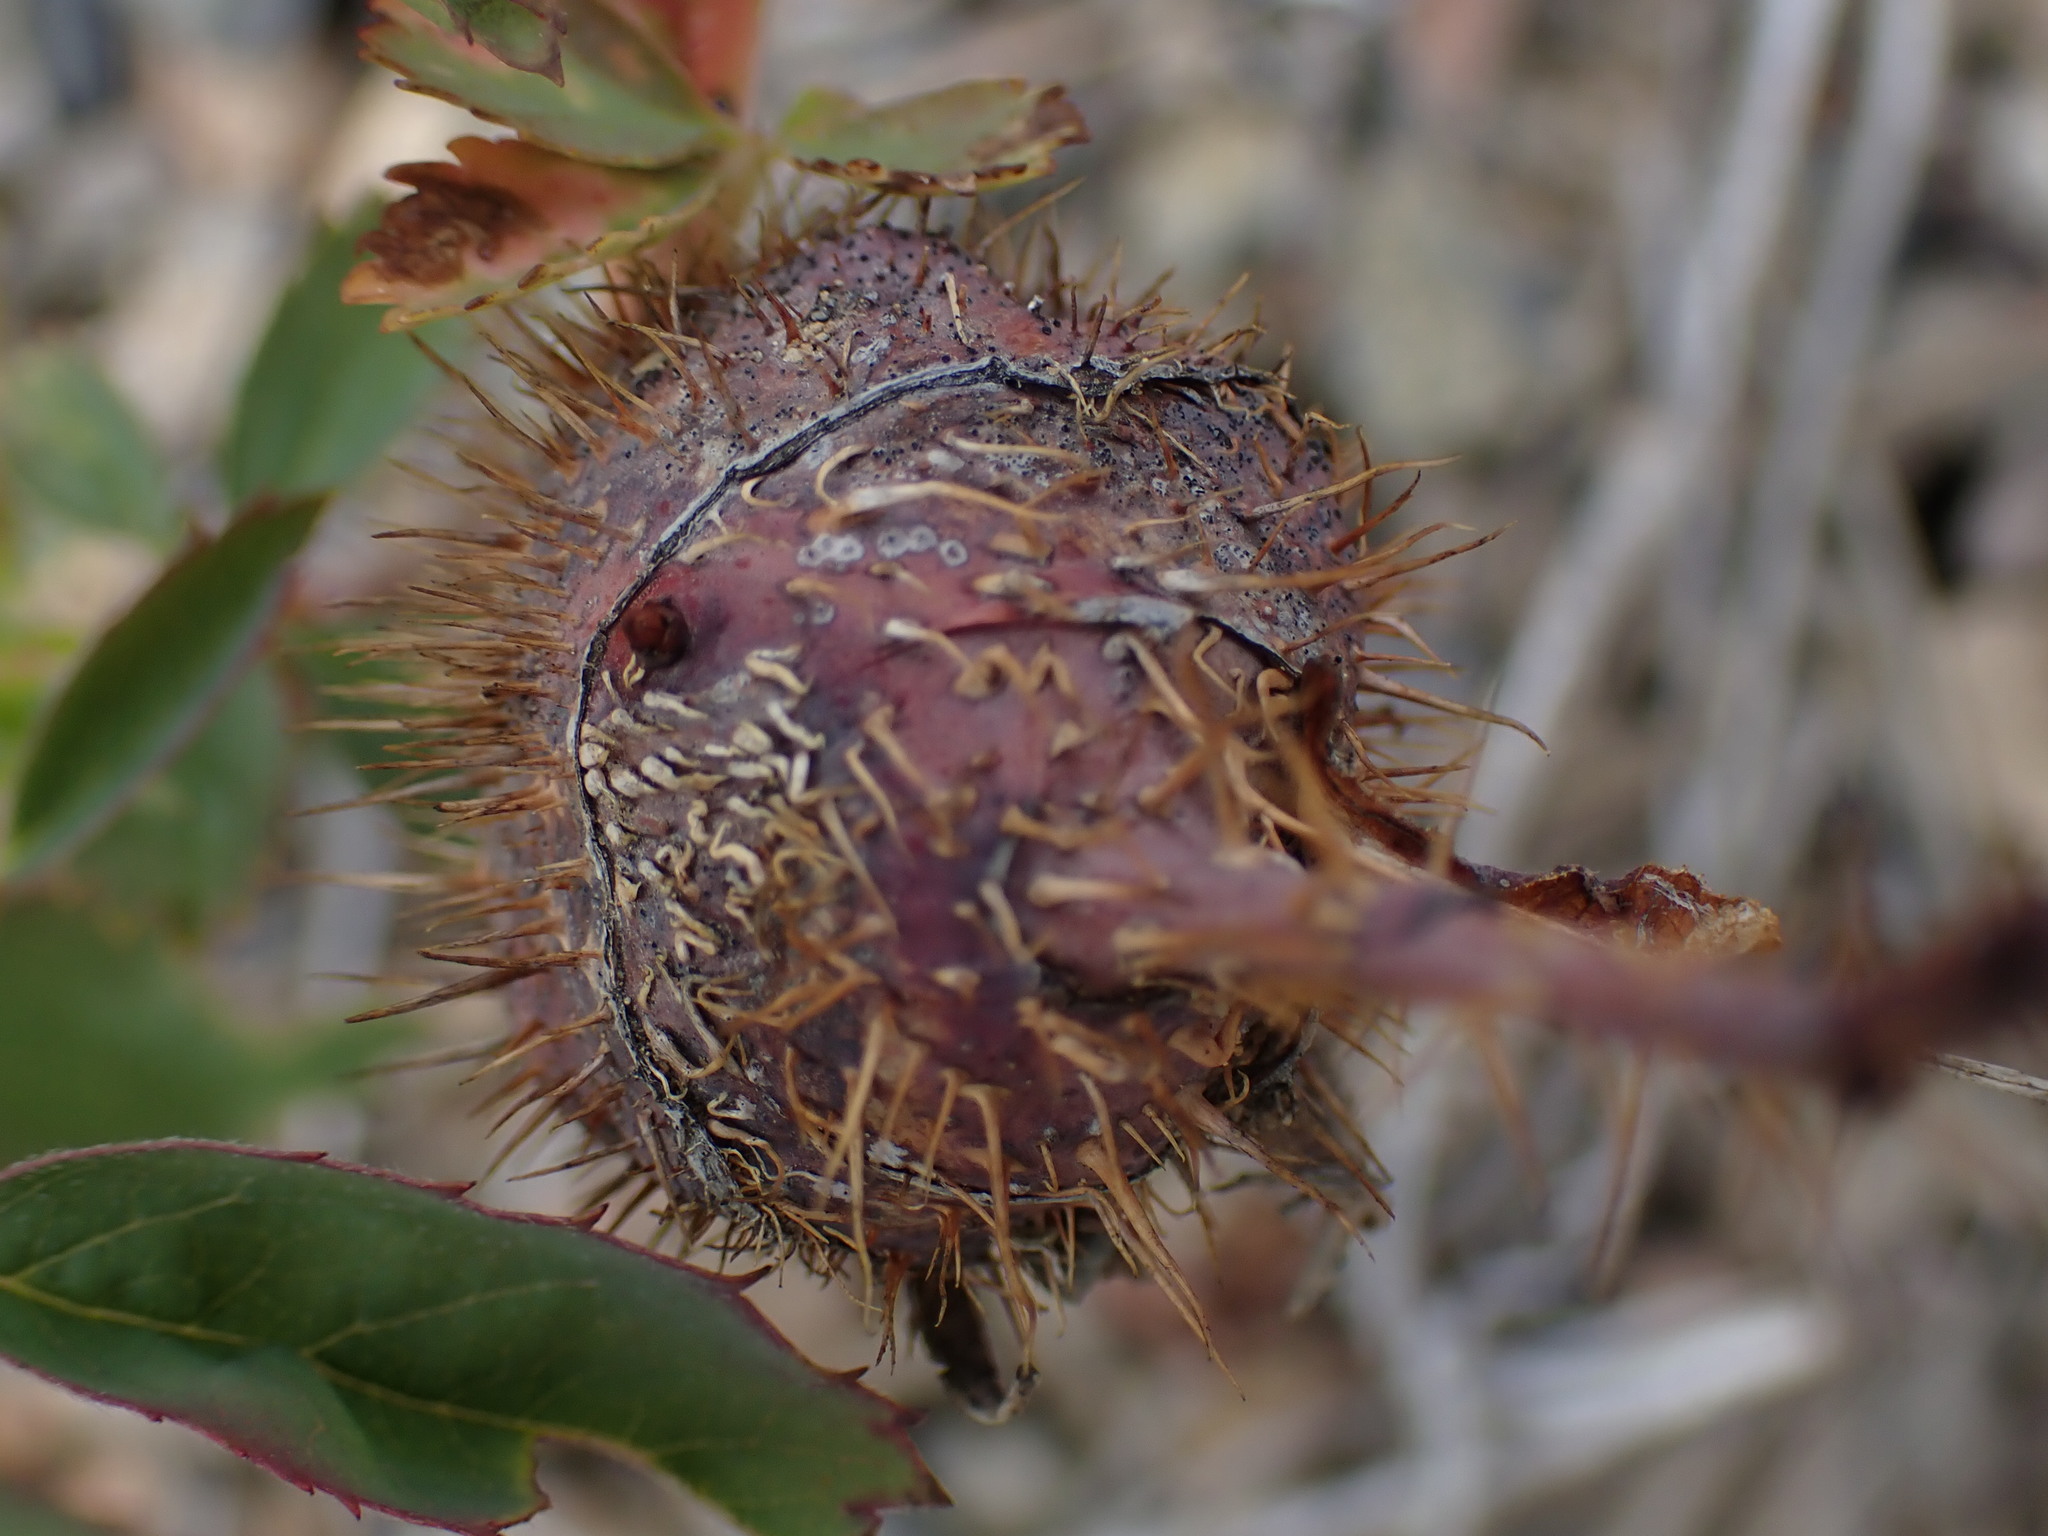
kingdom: Animalia
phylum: Arthropoda
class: Insecta
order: Hymenoptera
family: Cynipidae
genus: Diplolepis
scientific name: Diplolepis spinosa
